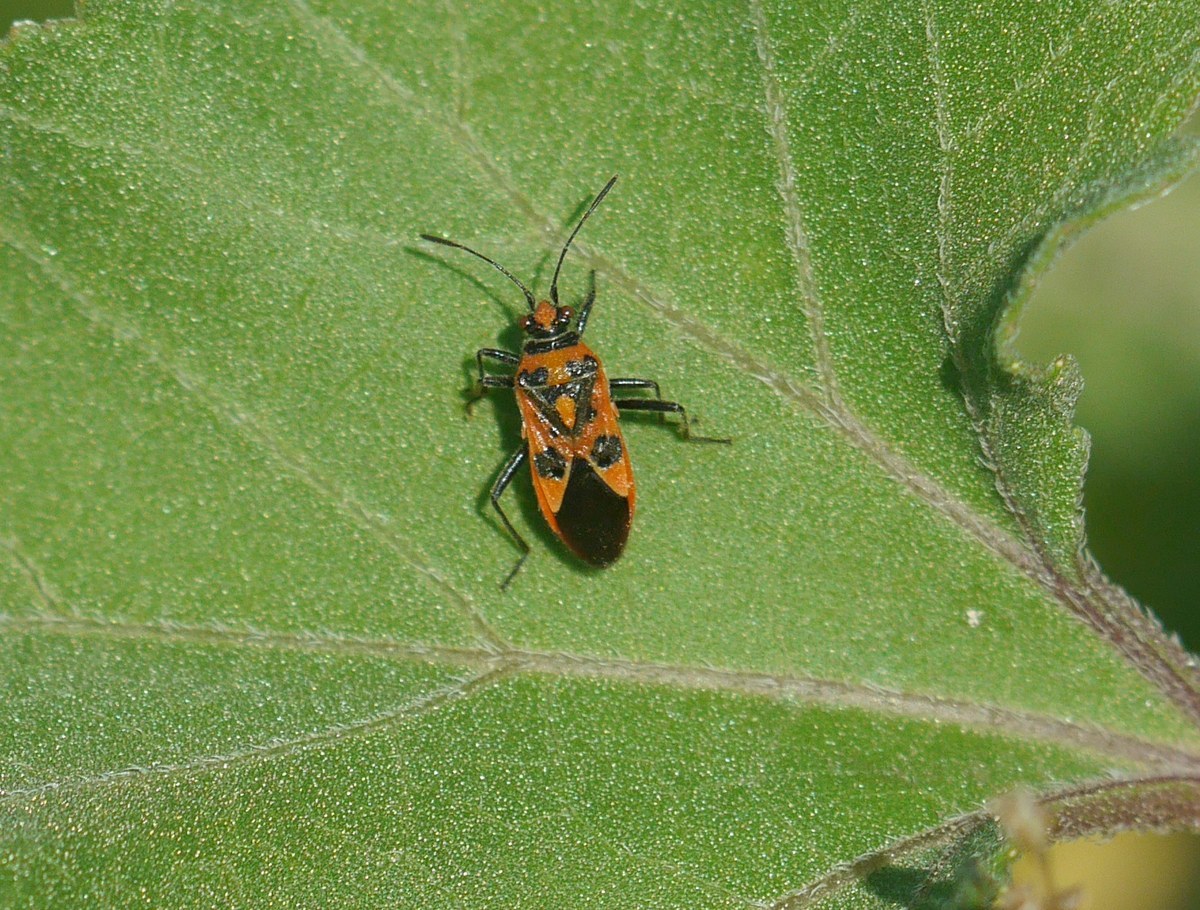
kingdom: Animalia
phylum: Arthropoda
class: Insecta
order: Hemiptera
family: Rhopalidae
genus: Corizus
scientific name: Corizus hyoscyami
